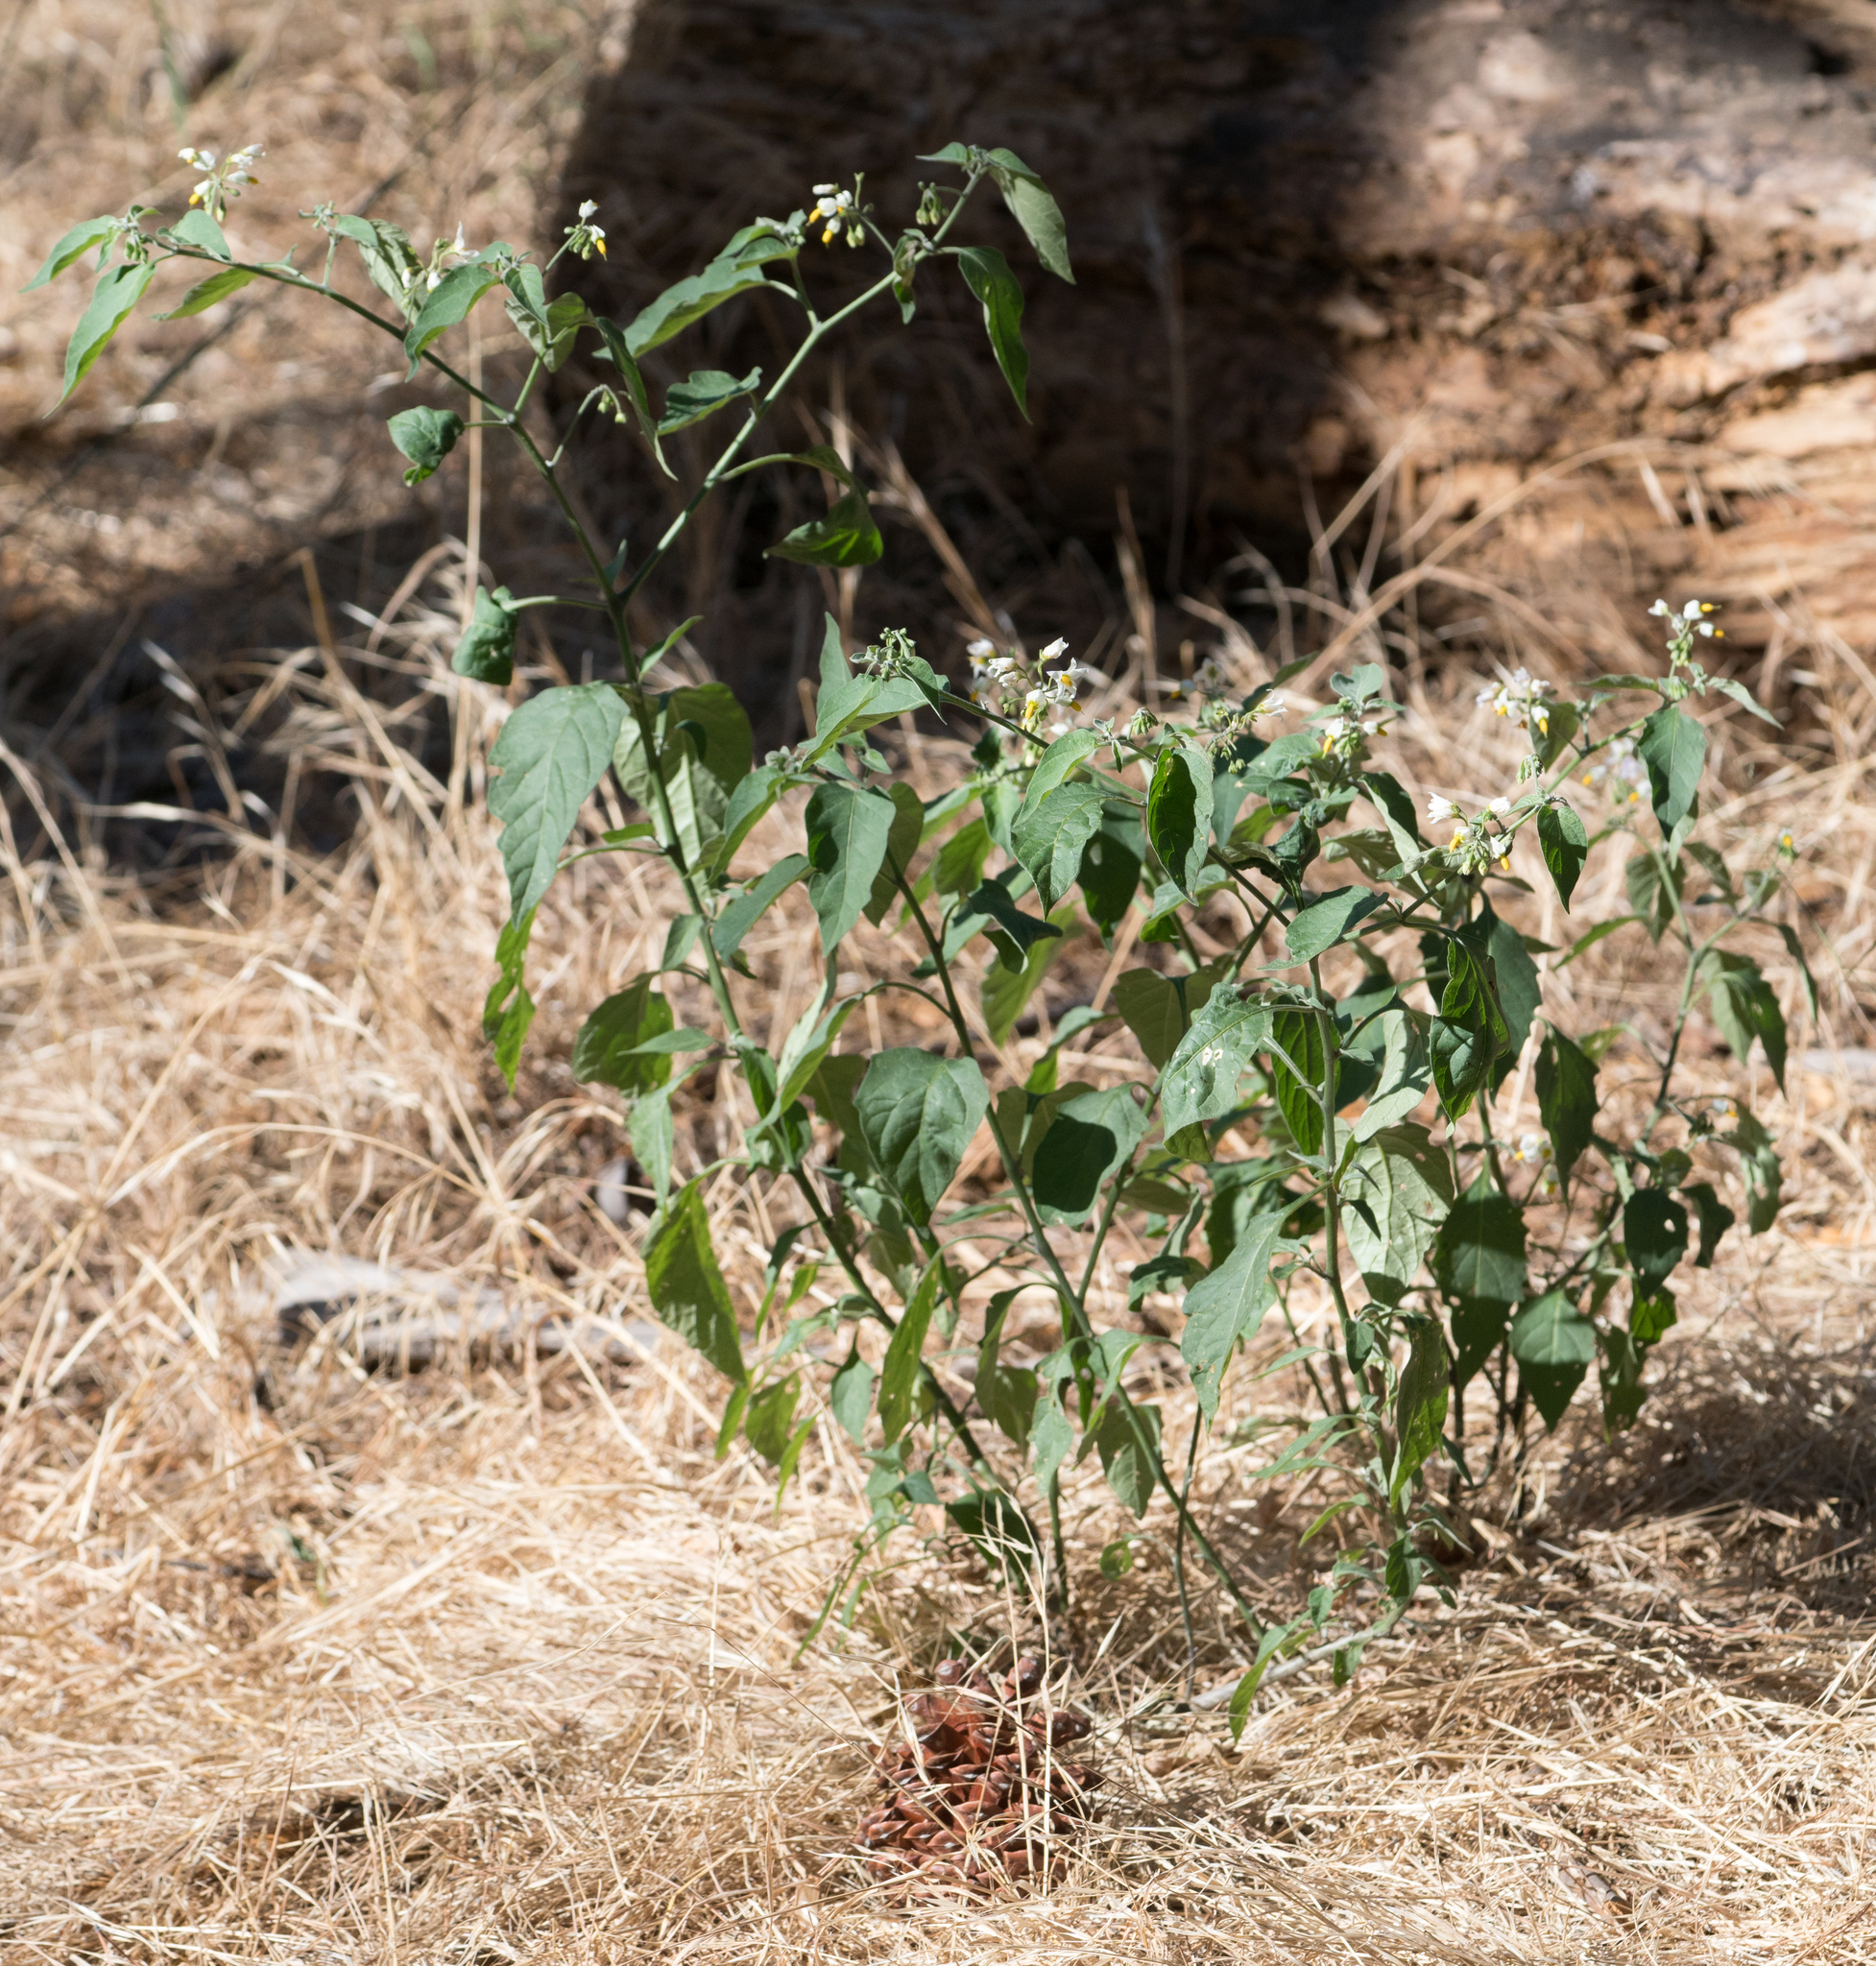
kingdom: Plantae
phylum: Tracheophyta
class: Magnoliopsida
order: Solanales
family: Solanaceae
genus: Solanum
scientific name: Solanum douglasii
